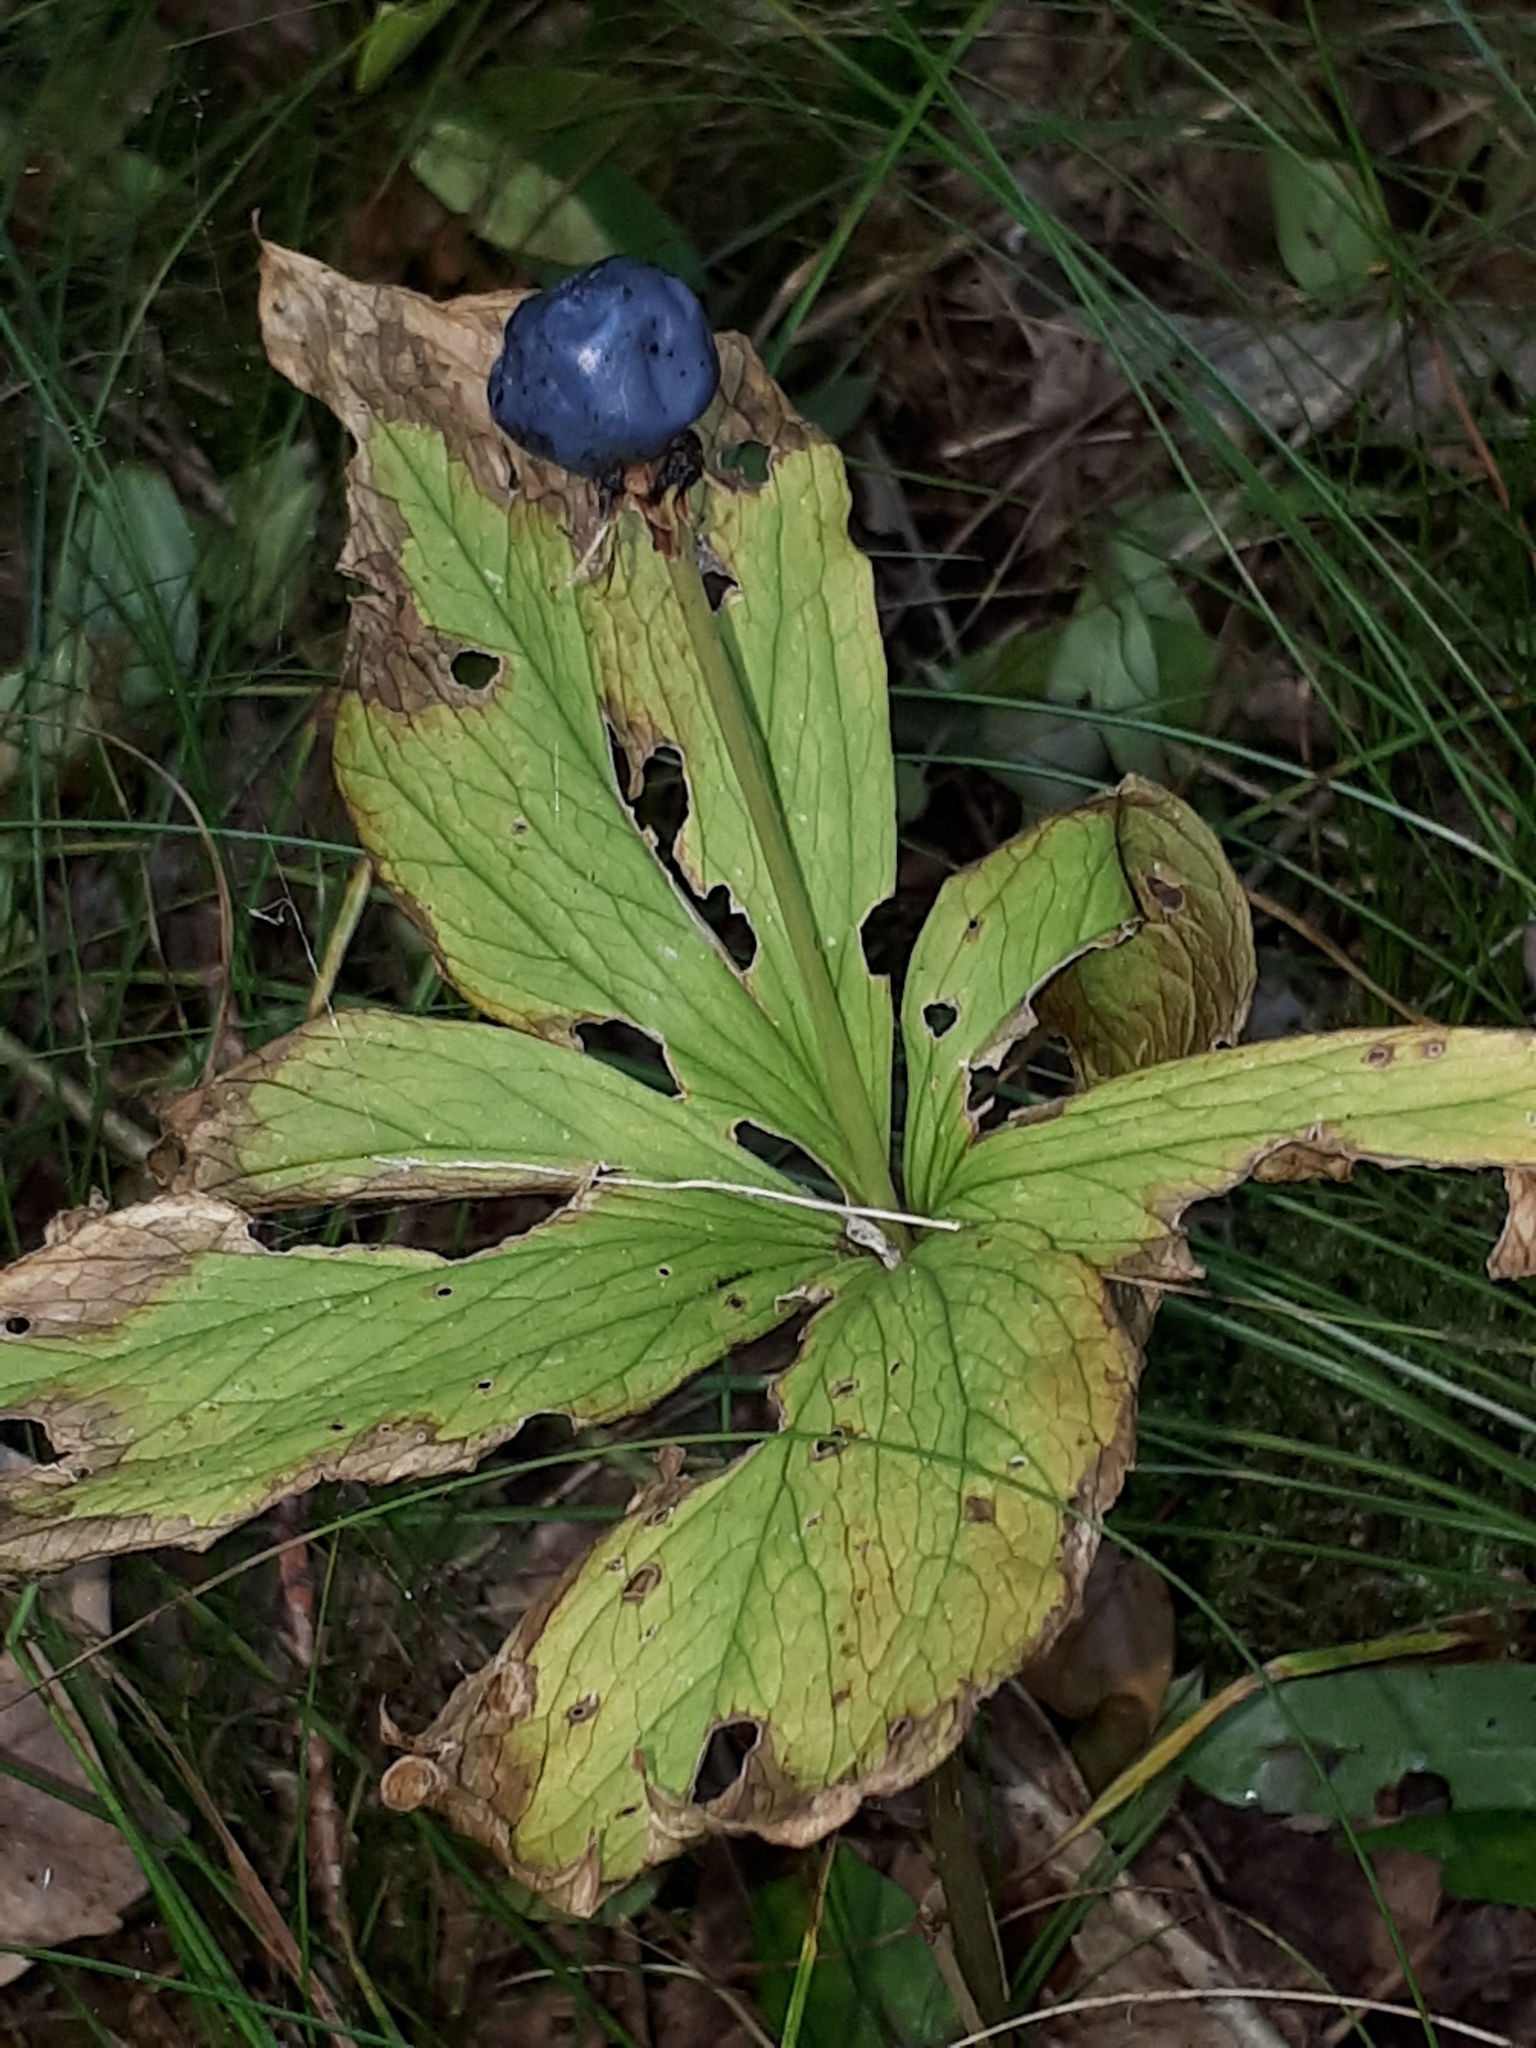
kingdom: Plantae
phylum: Tracheophyta
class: Liliopsida
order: Liliales
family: Melanthiaceae
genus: Paris
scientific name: Paris quadrifolia
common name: Herb-paris
